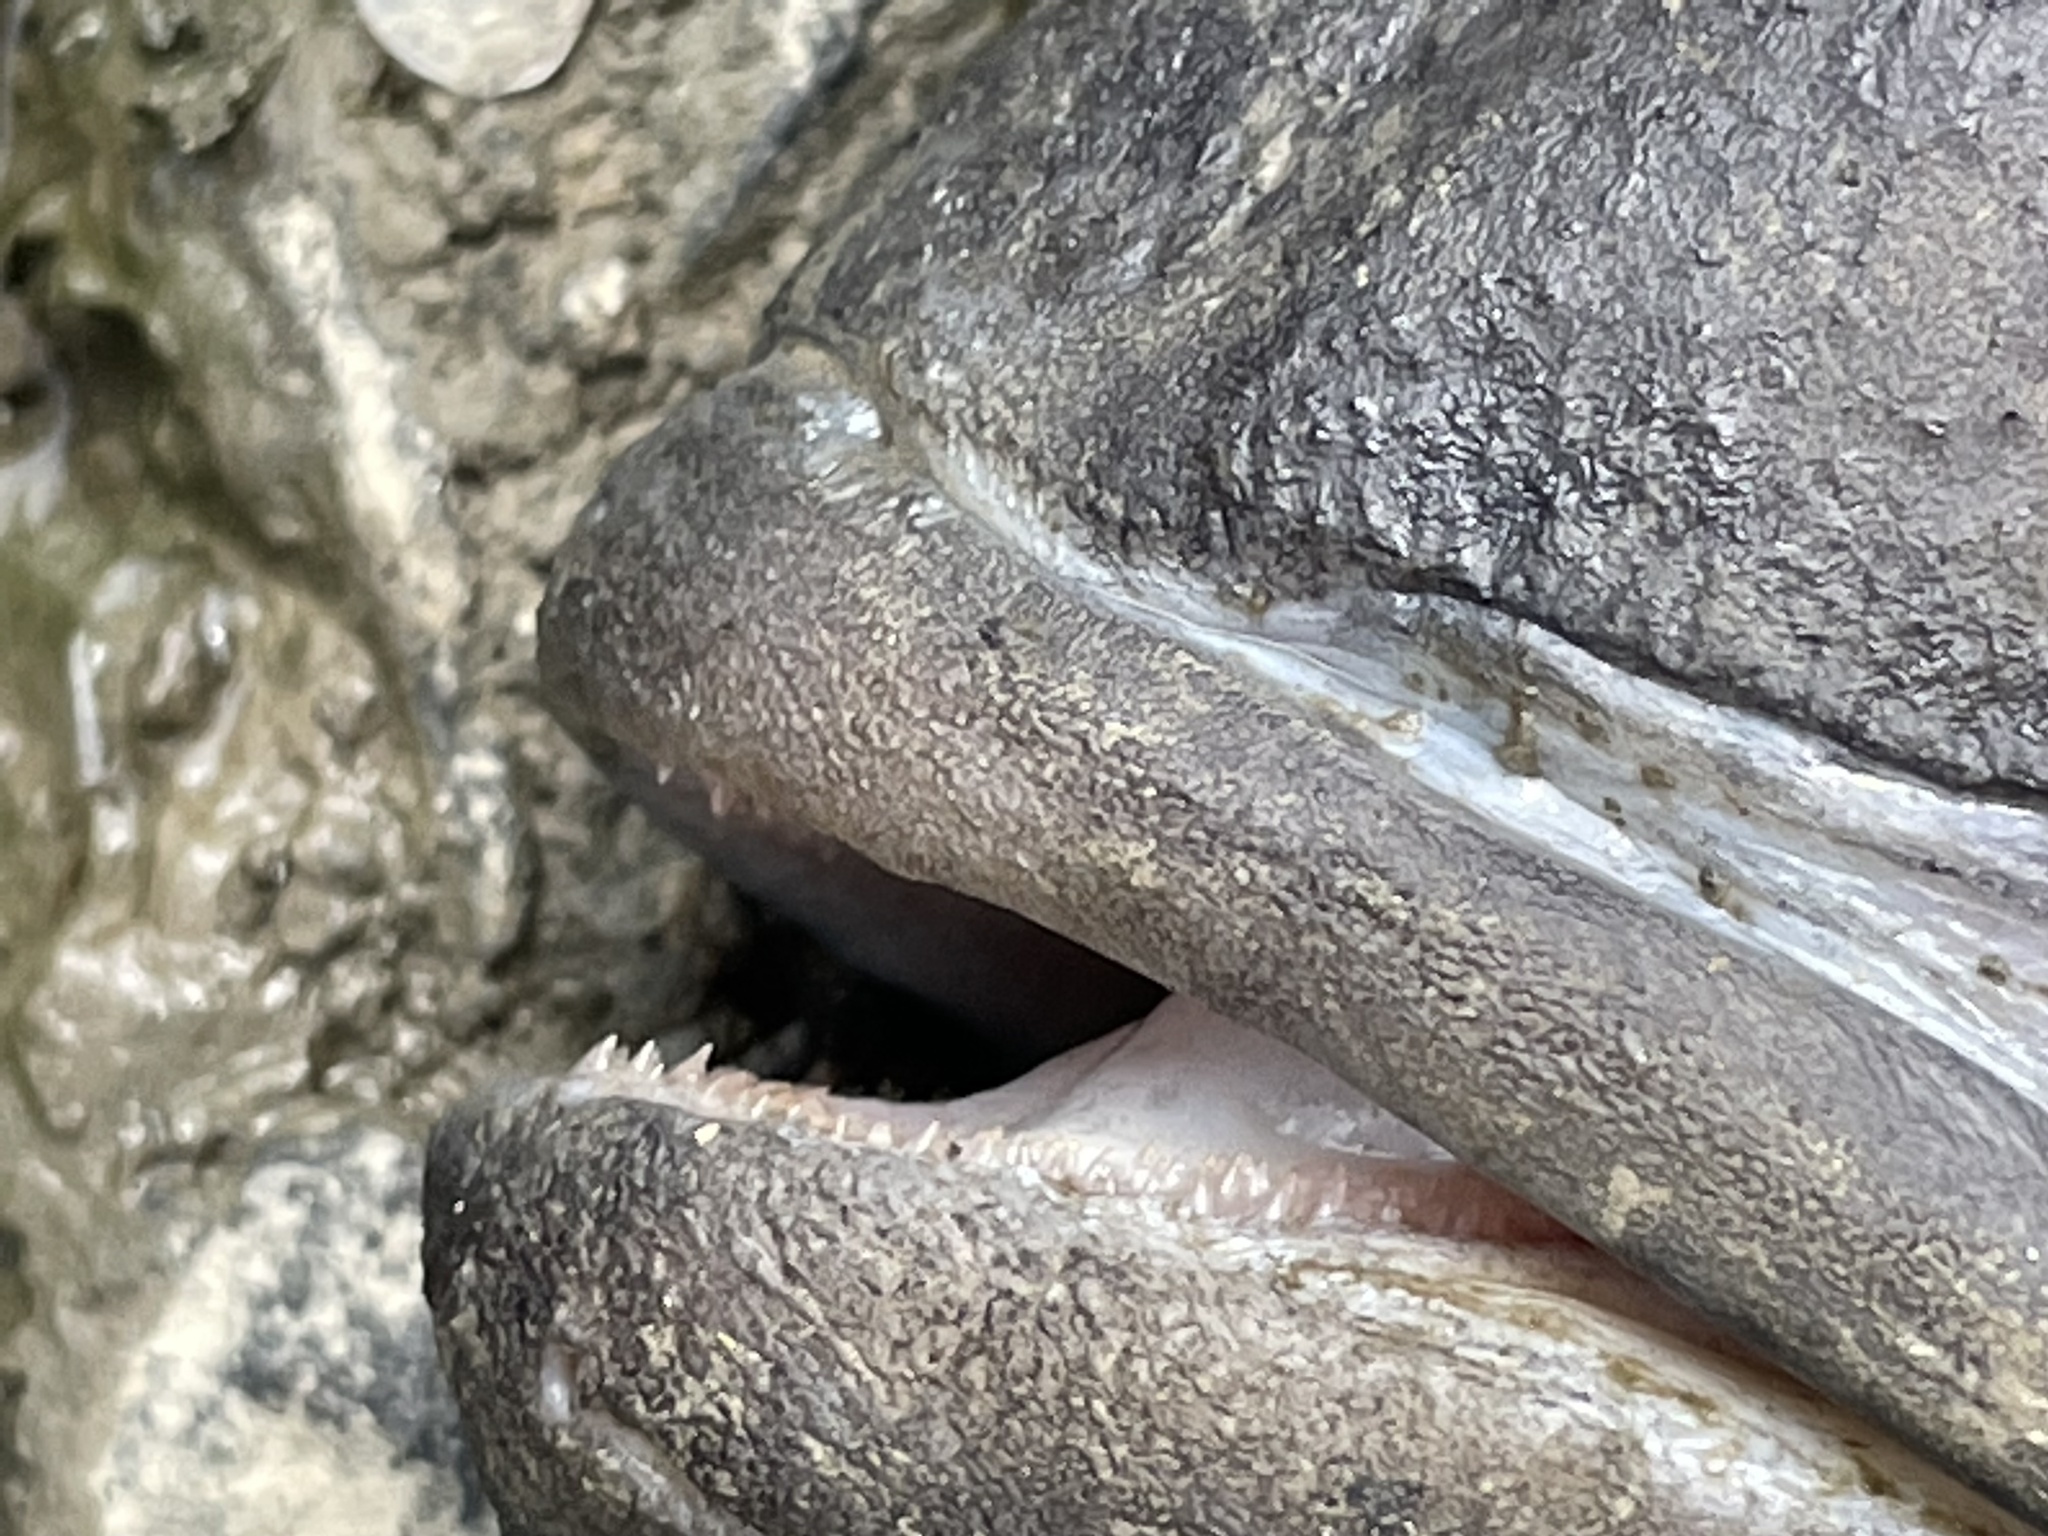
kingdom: Animalia
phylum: Chordata
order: Perciformes
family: Serranidae
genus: Centropristis
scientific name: Centropristis striata
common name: Black sea bass
